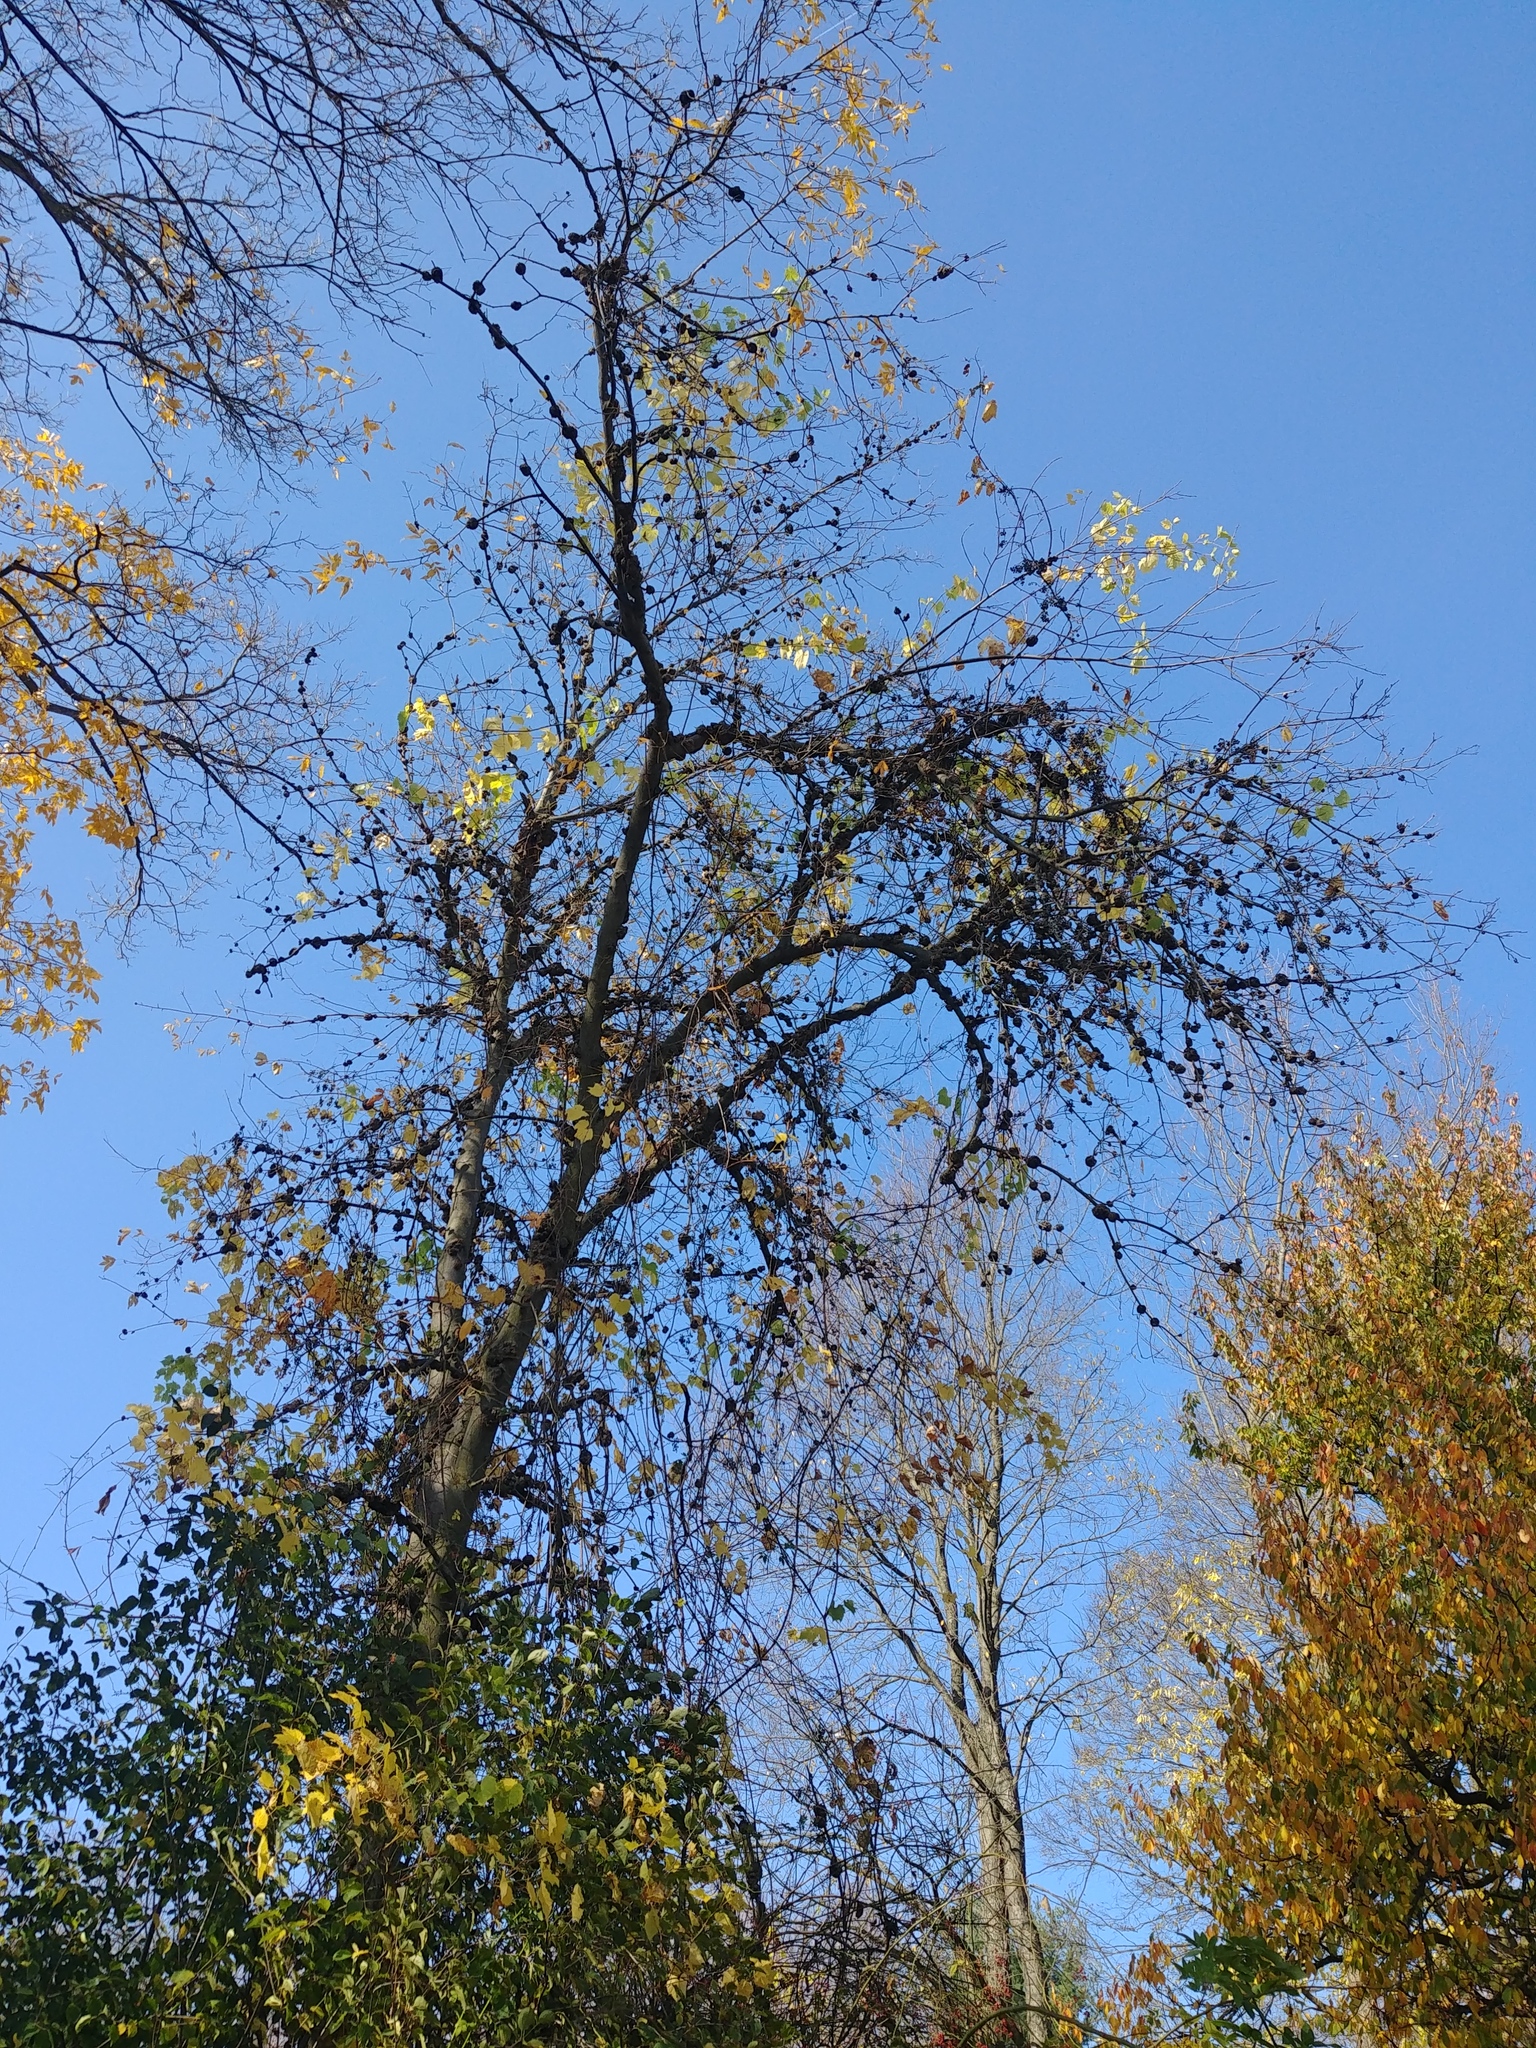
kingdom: Plantae
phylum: Tracheophyta
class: Magnoliopsida
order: Fagales
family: Juglandaceae
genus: Carya
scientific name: Carya cordiformis
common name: Bitternut hickory
